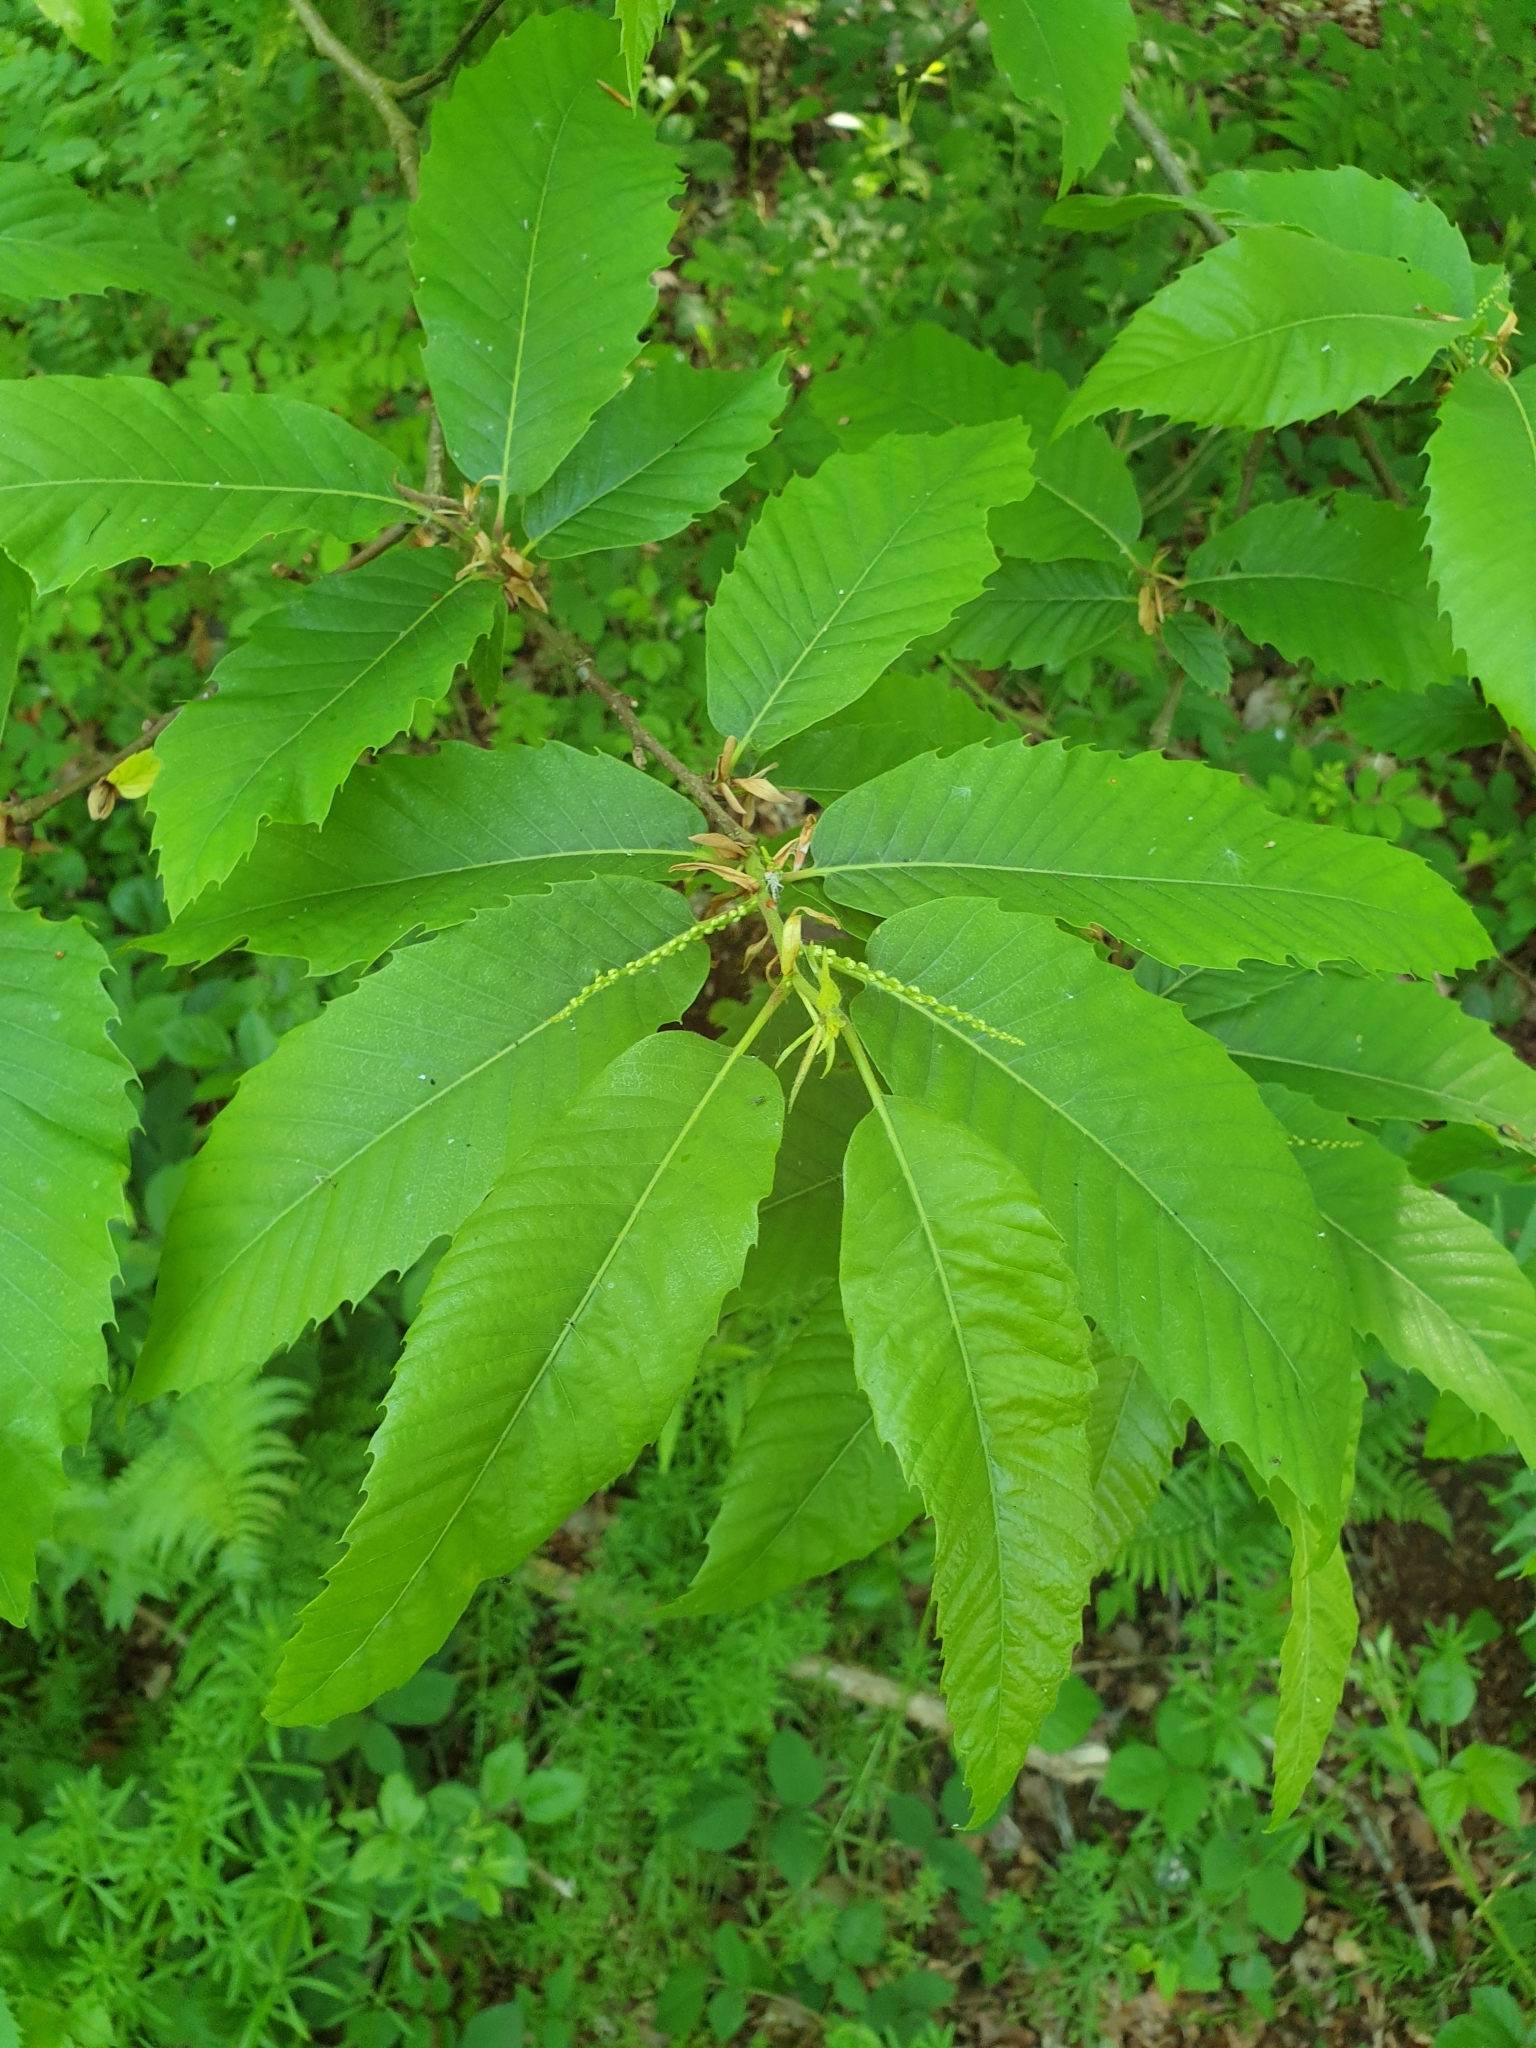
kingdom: Plantae
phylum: Tracheophyta
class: Magnoliopsida
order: Fagales
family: Fagaceae
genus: Castanea
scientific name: Castanea sativa
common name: Sweet chestnut
